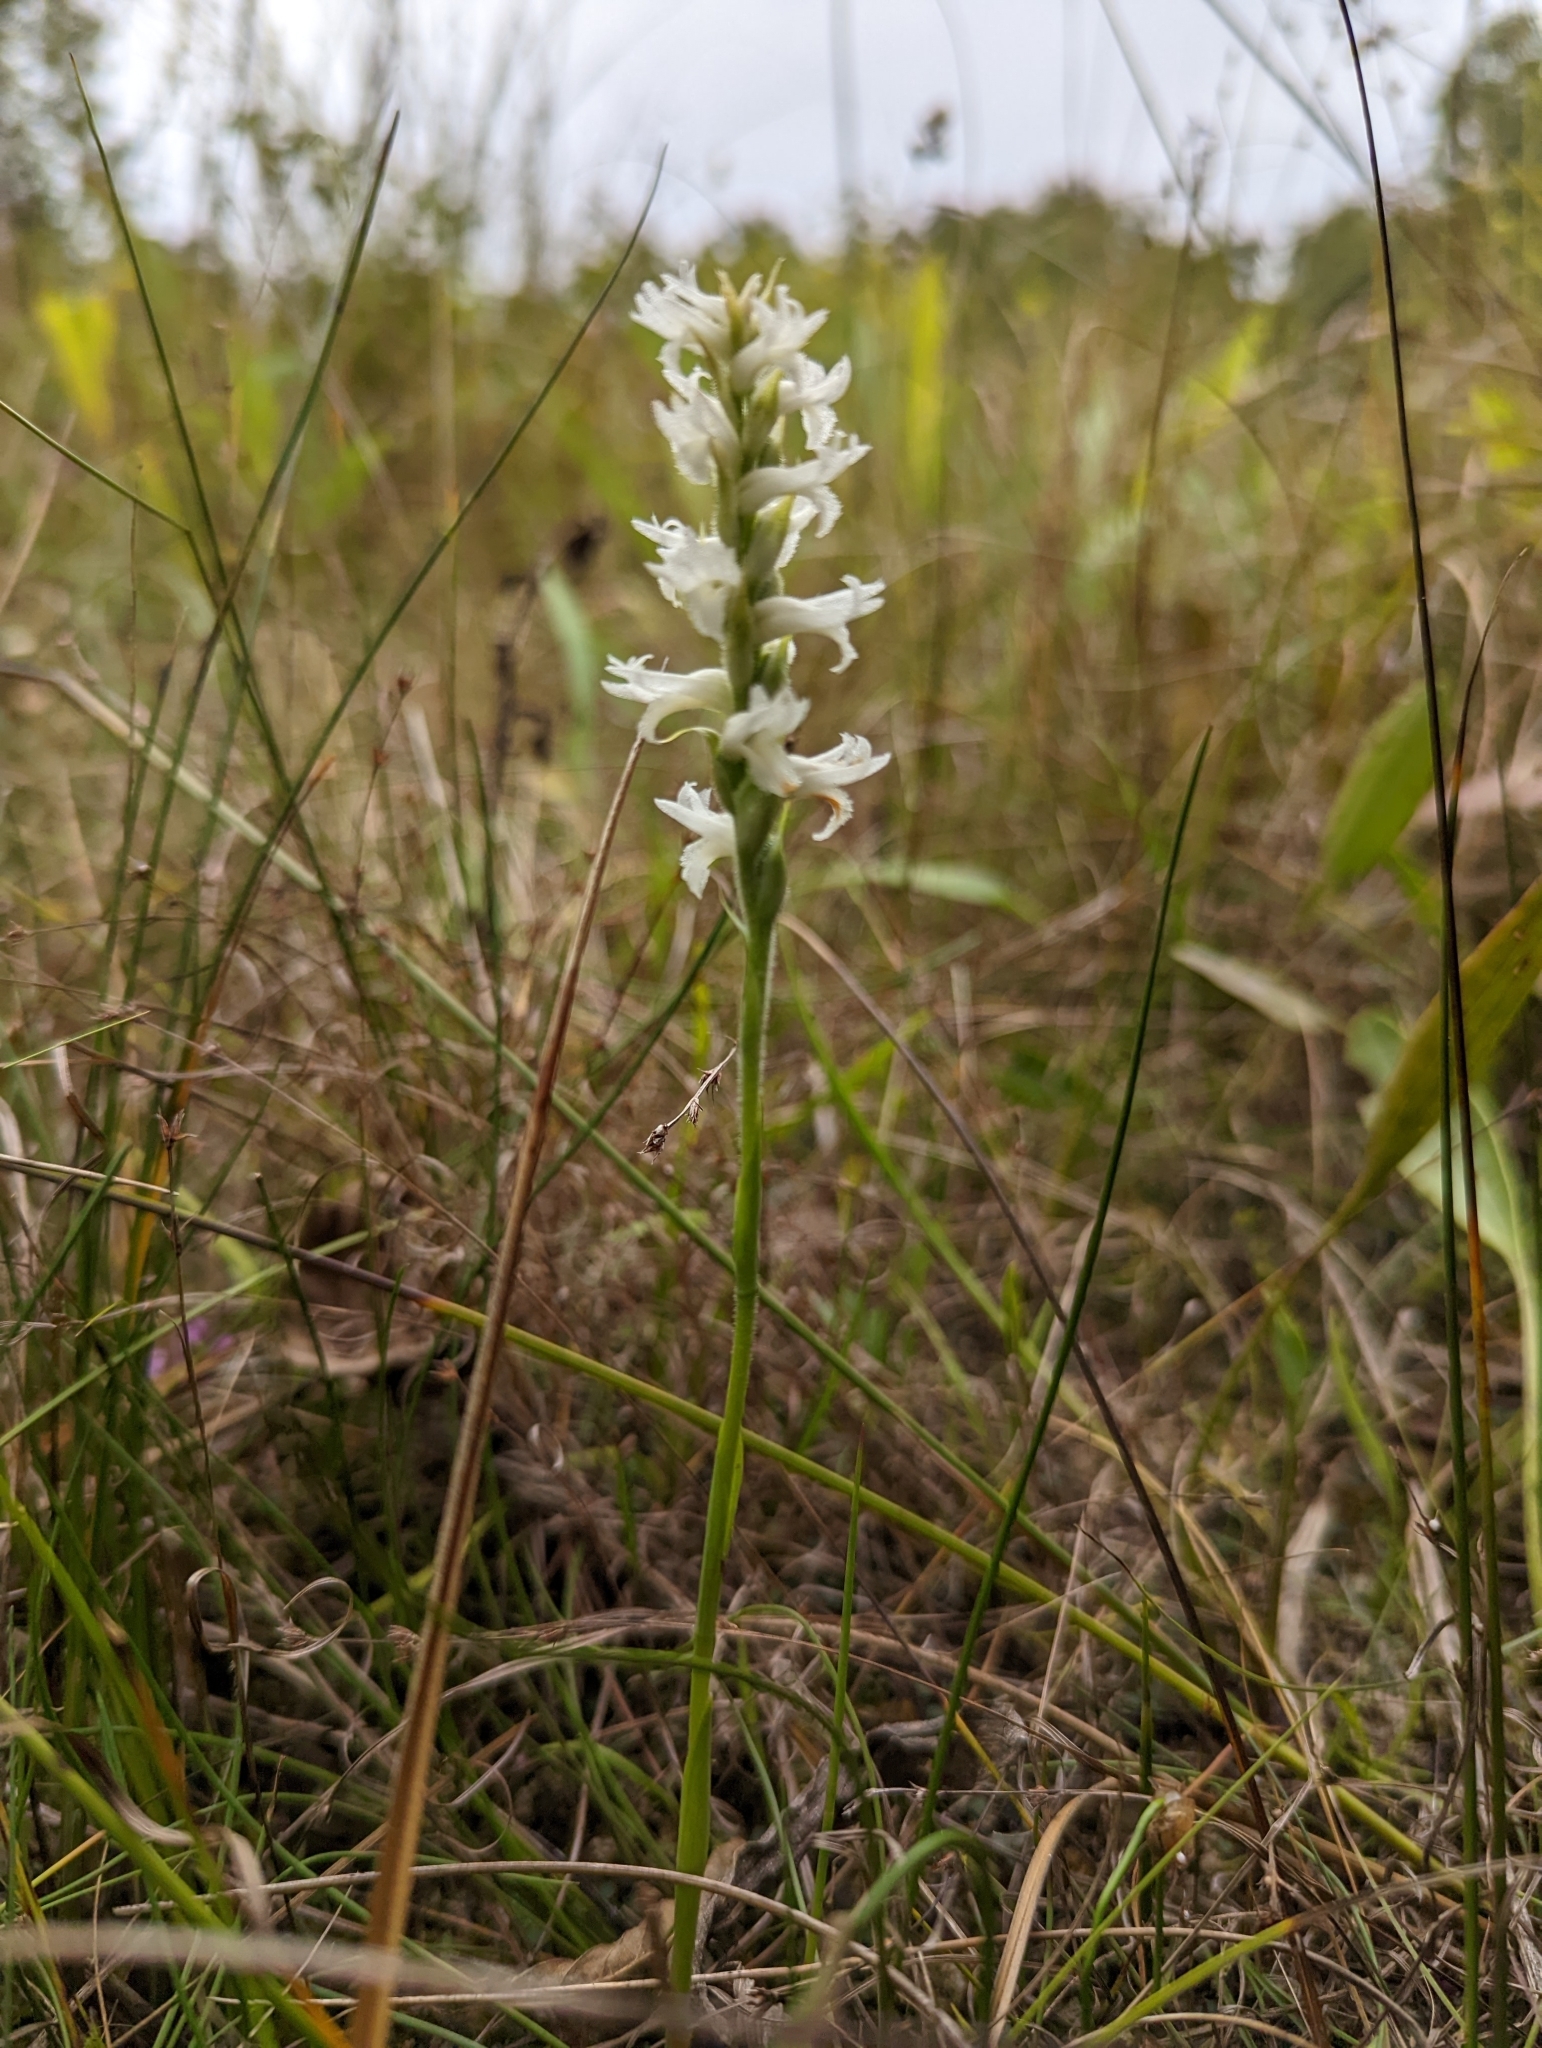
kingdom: Plantae
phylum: Tracheophyta
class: Liliopsida
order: Asparagales
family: Orchidaceae
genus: Spiranthes
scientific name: Spiranthes incurva
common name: Sphinx ladies'-tresses
